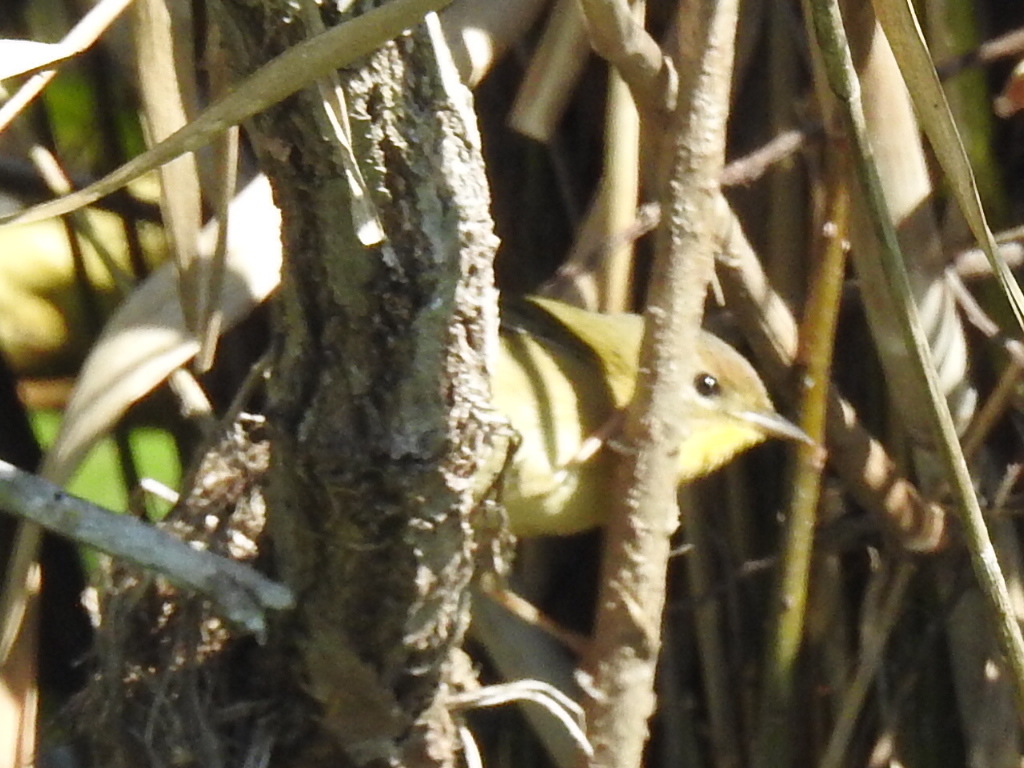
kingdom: Animalia
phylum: Chordata
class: Aves
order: Passeriformes
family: Parulidae
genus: Geothlypis
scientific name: Geothlypis trichas
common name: Common yellowthroat
